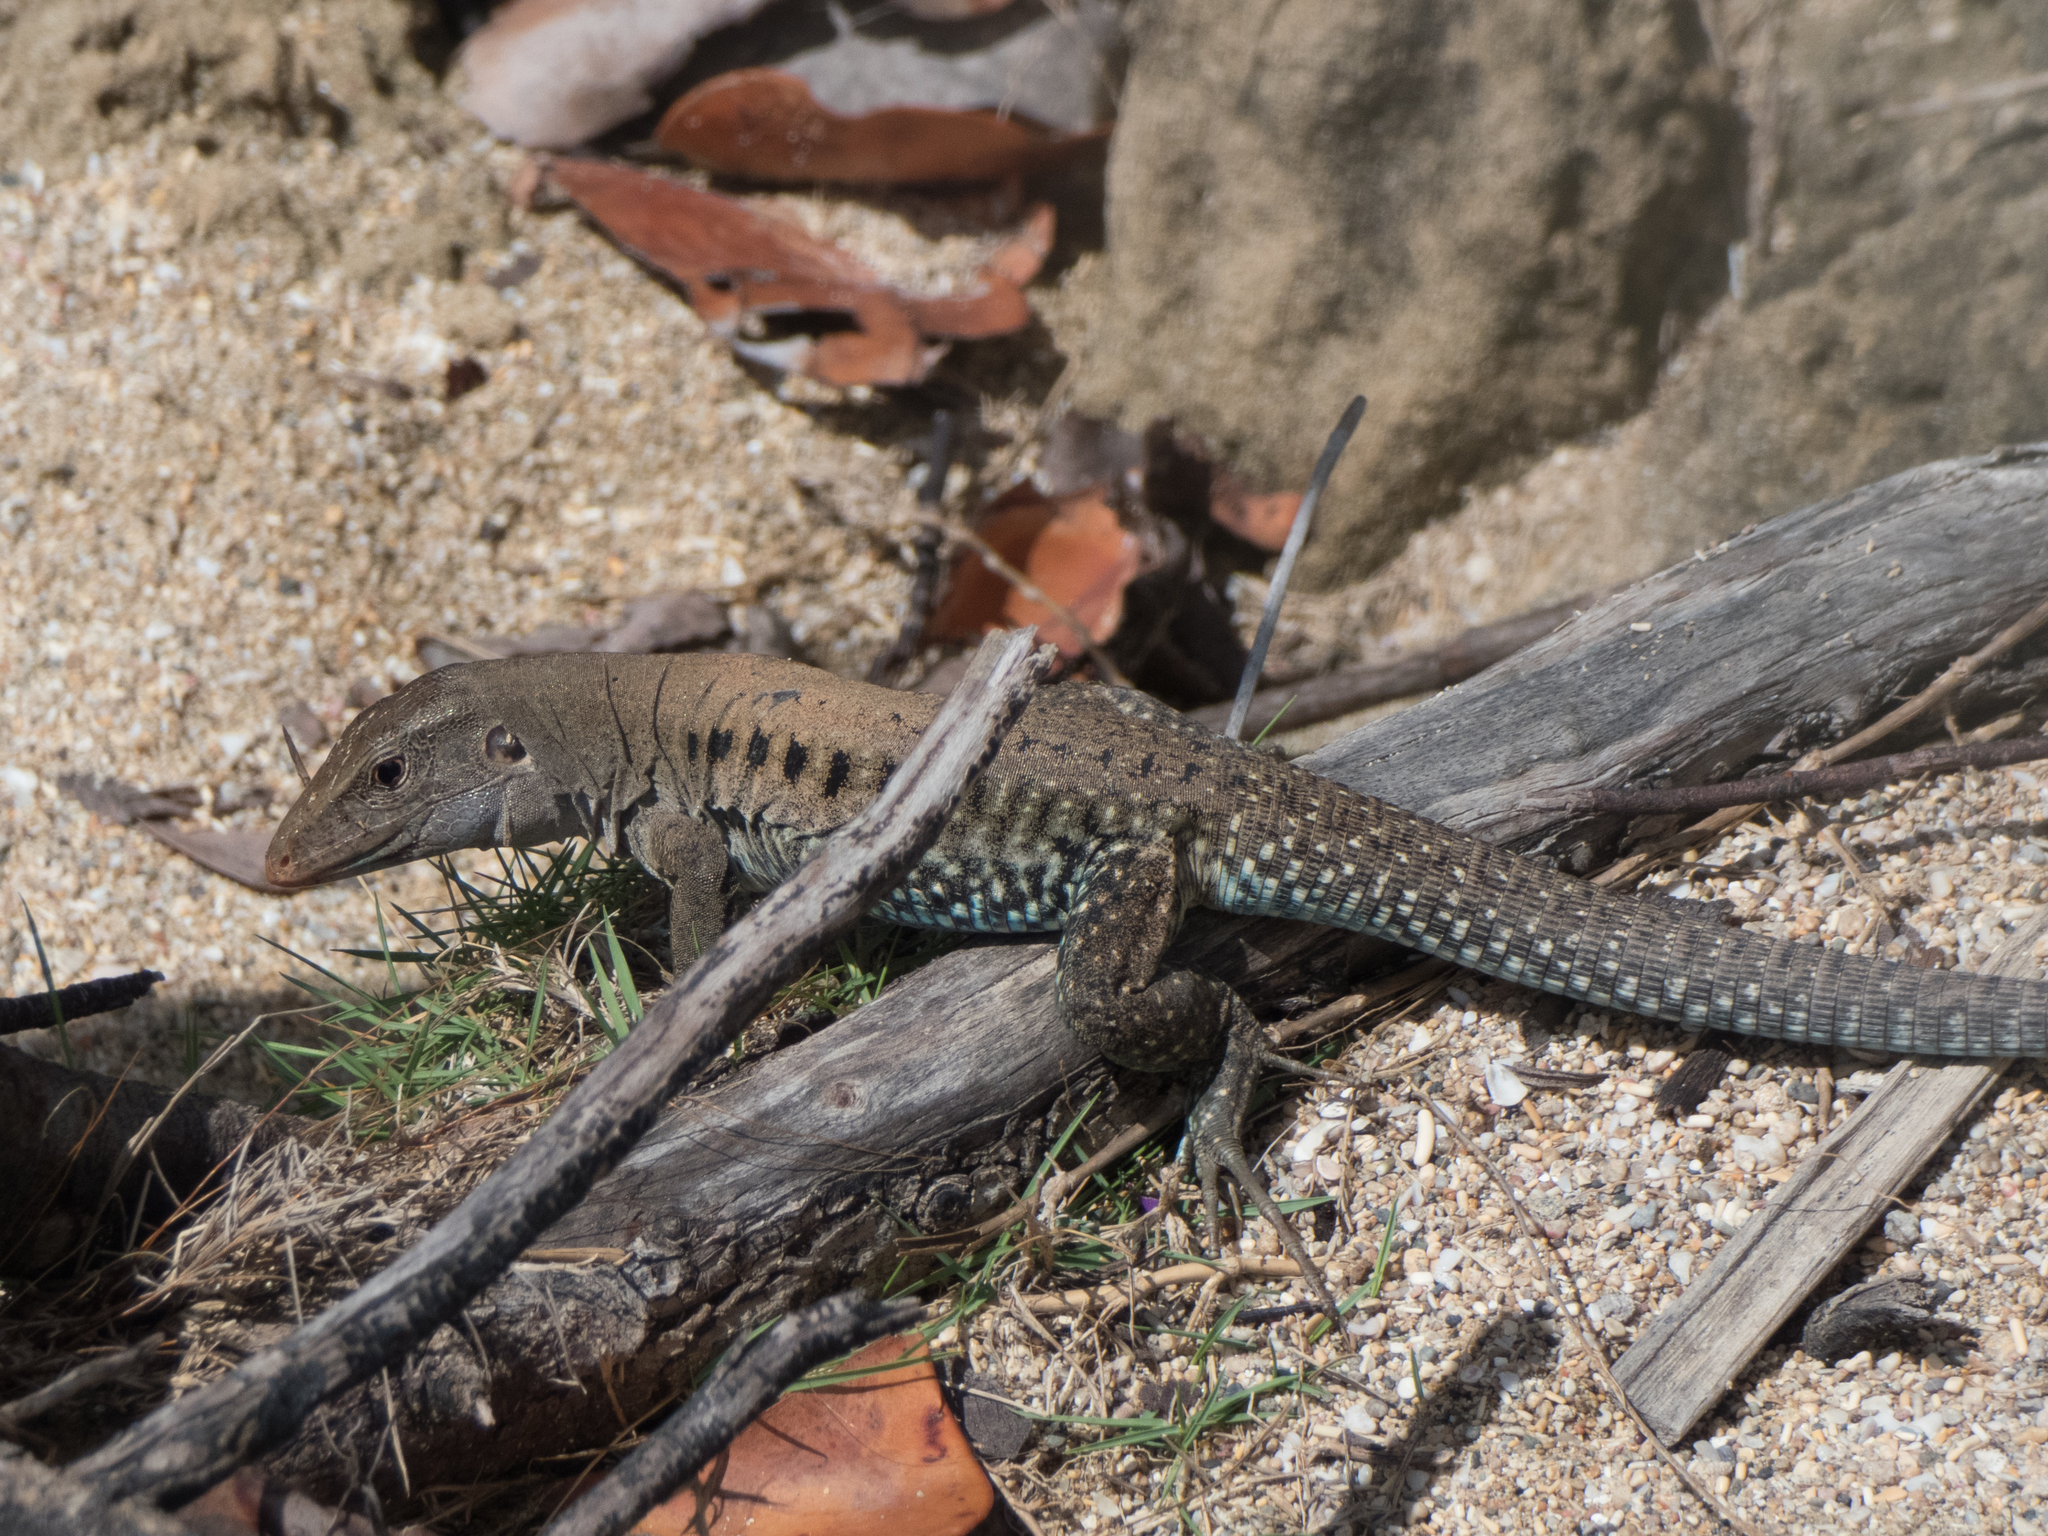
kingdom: Animalia
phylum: Chordata
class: Squamata
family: Teiidae
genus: Pholidoscelis
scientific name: Pholidoscelis exsul
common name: Common puerto rican ameiva
